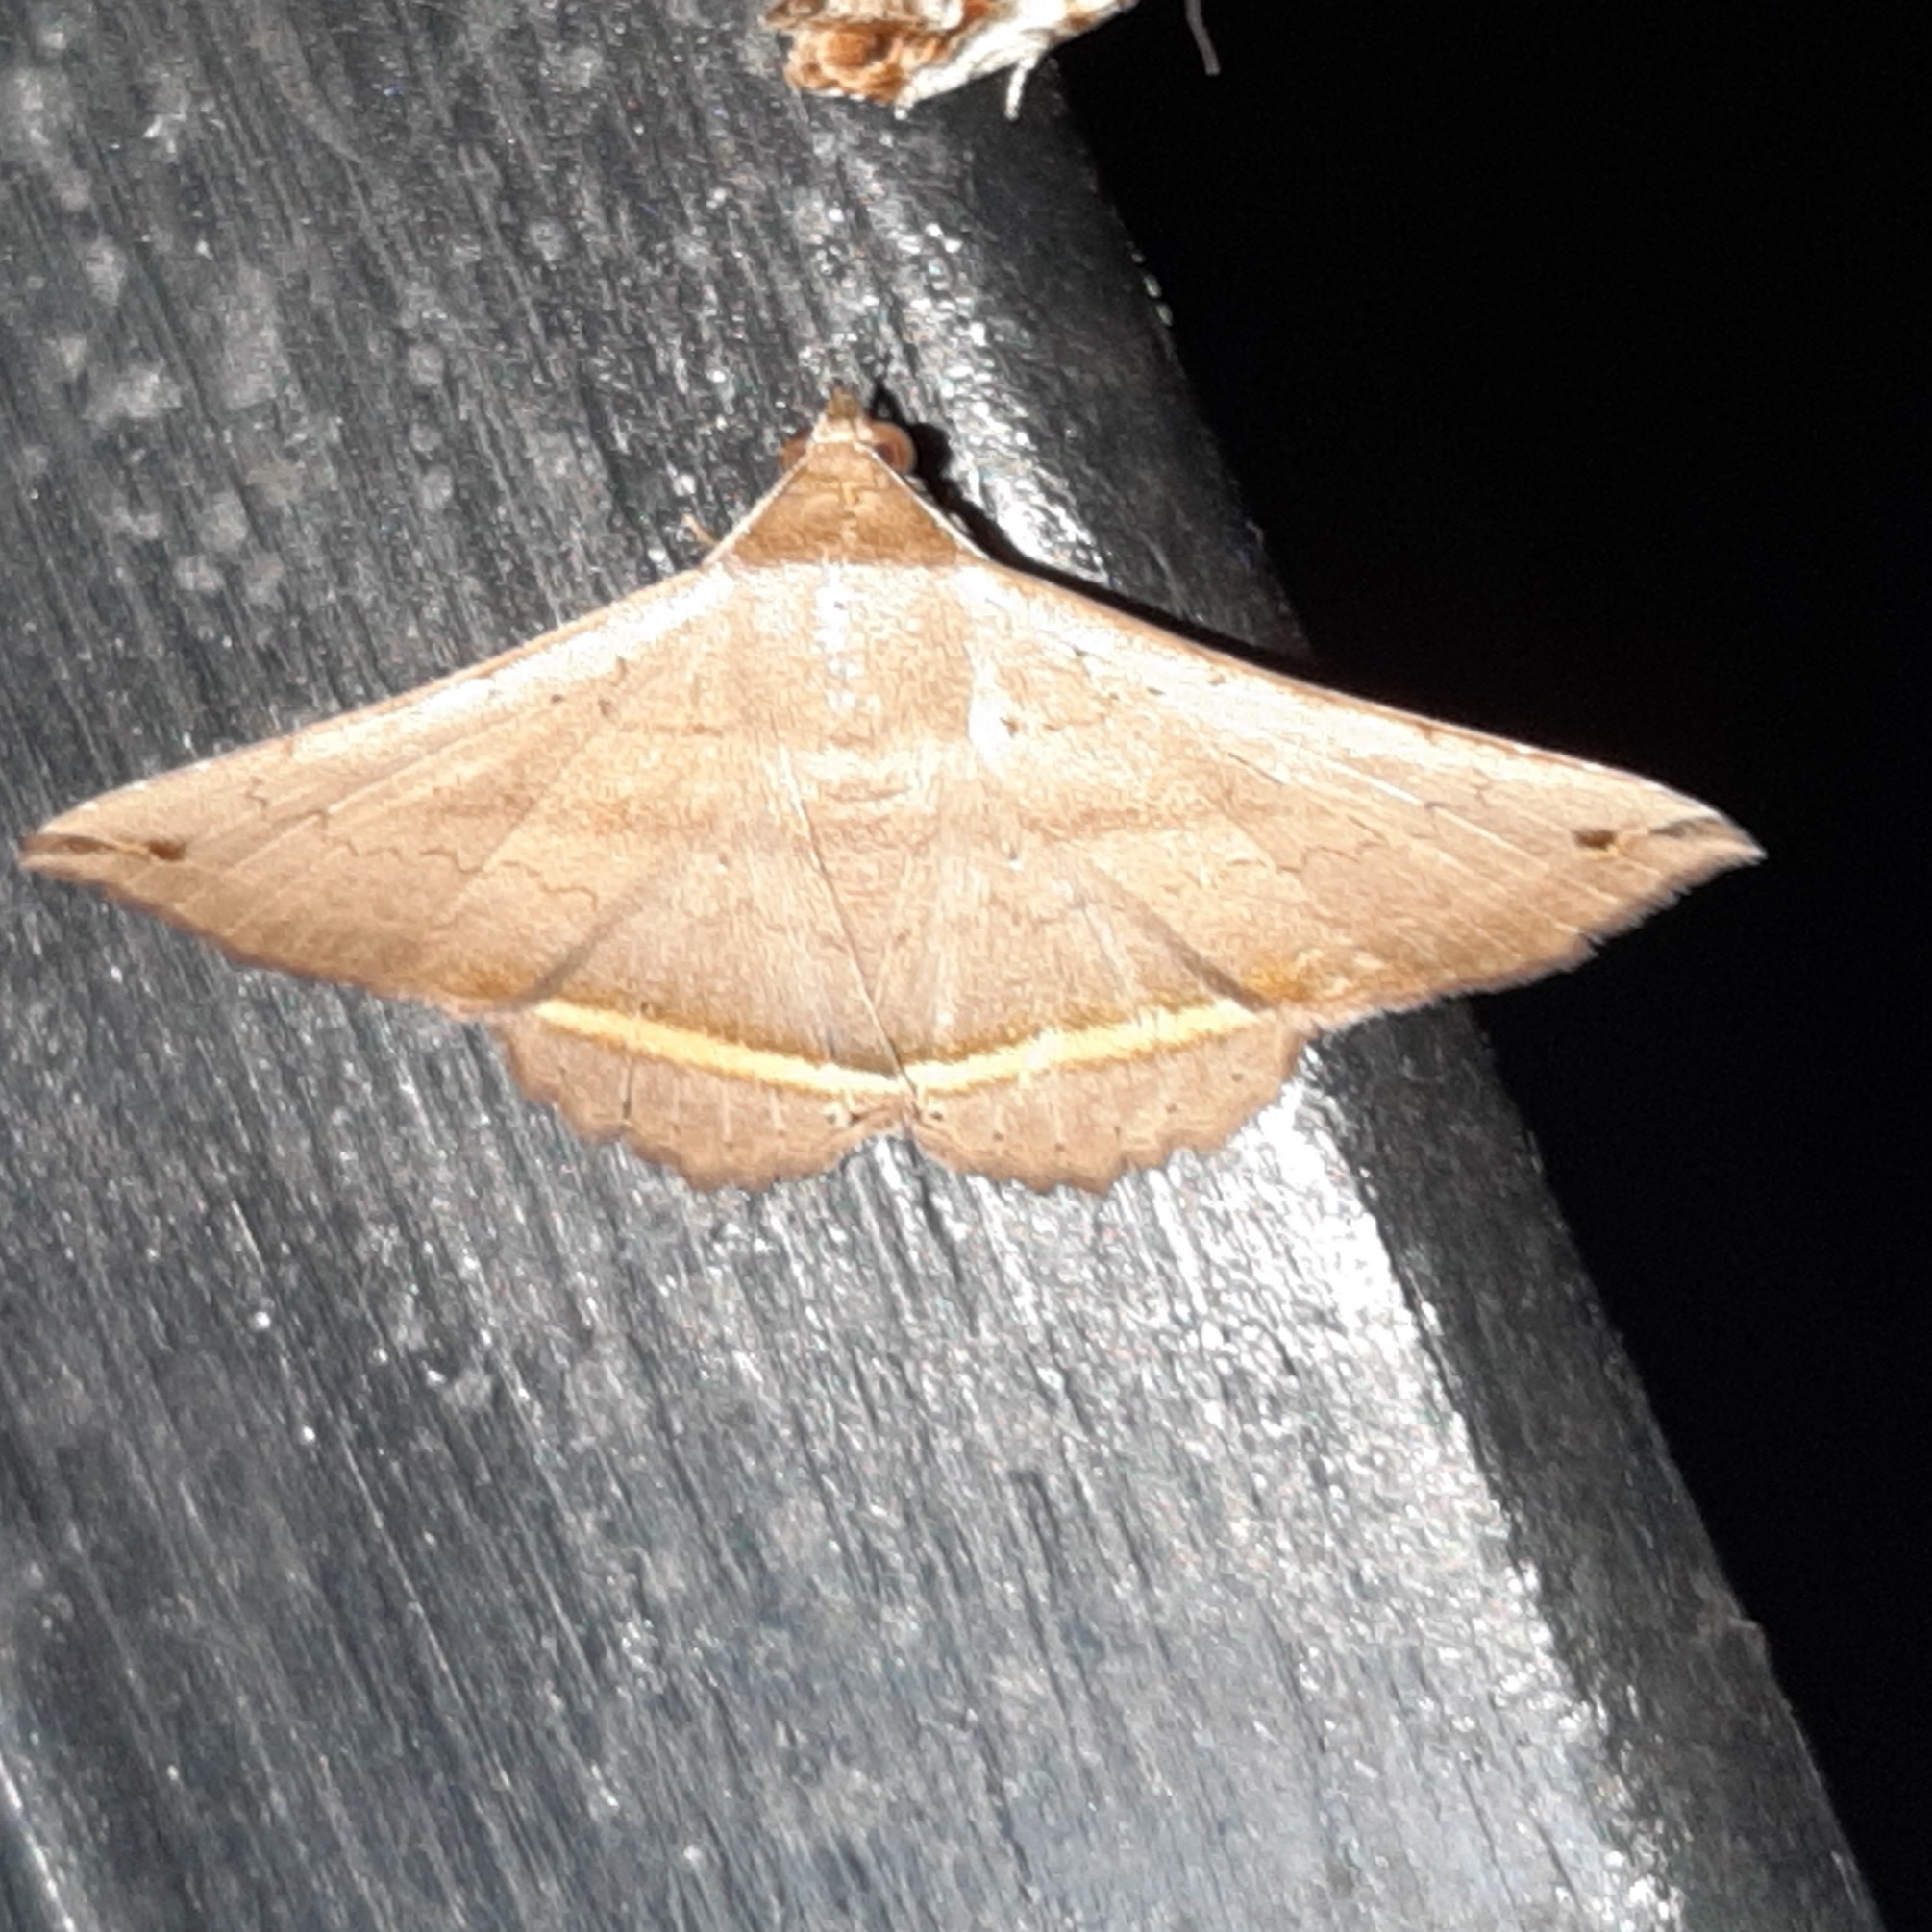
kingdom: Animalia
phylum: Arthropoda
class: Insecta
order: Lepidoptera
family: Erebidae
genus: Lesmone
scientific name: Lesmone formularis
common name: Lesmone moth
